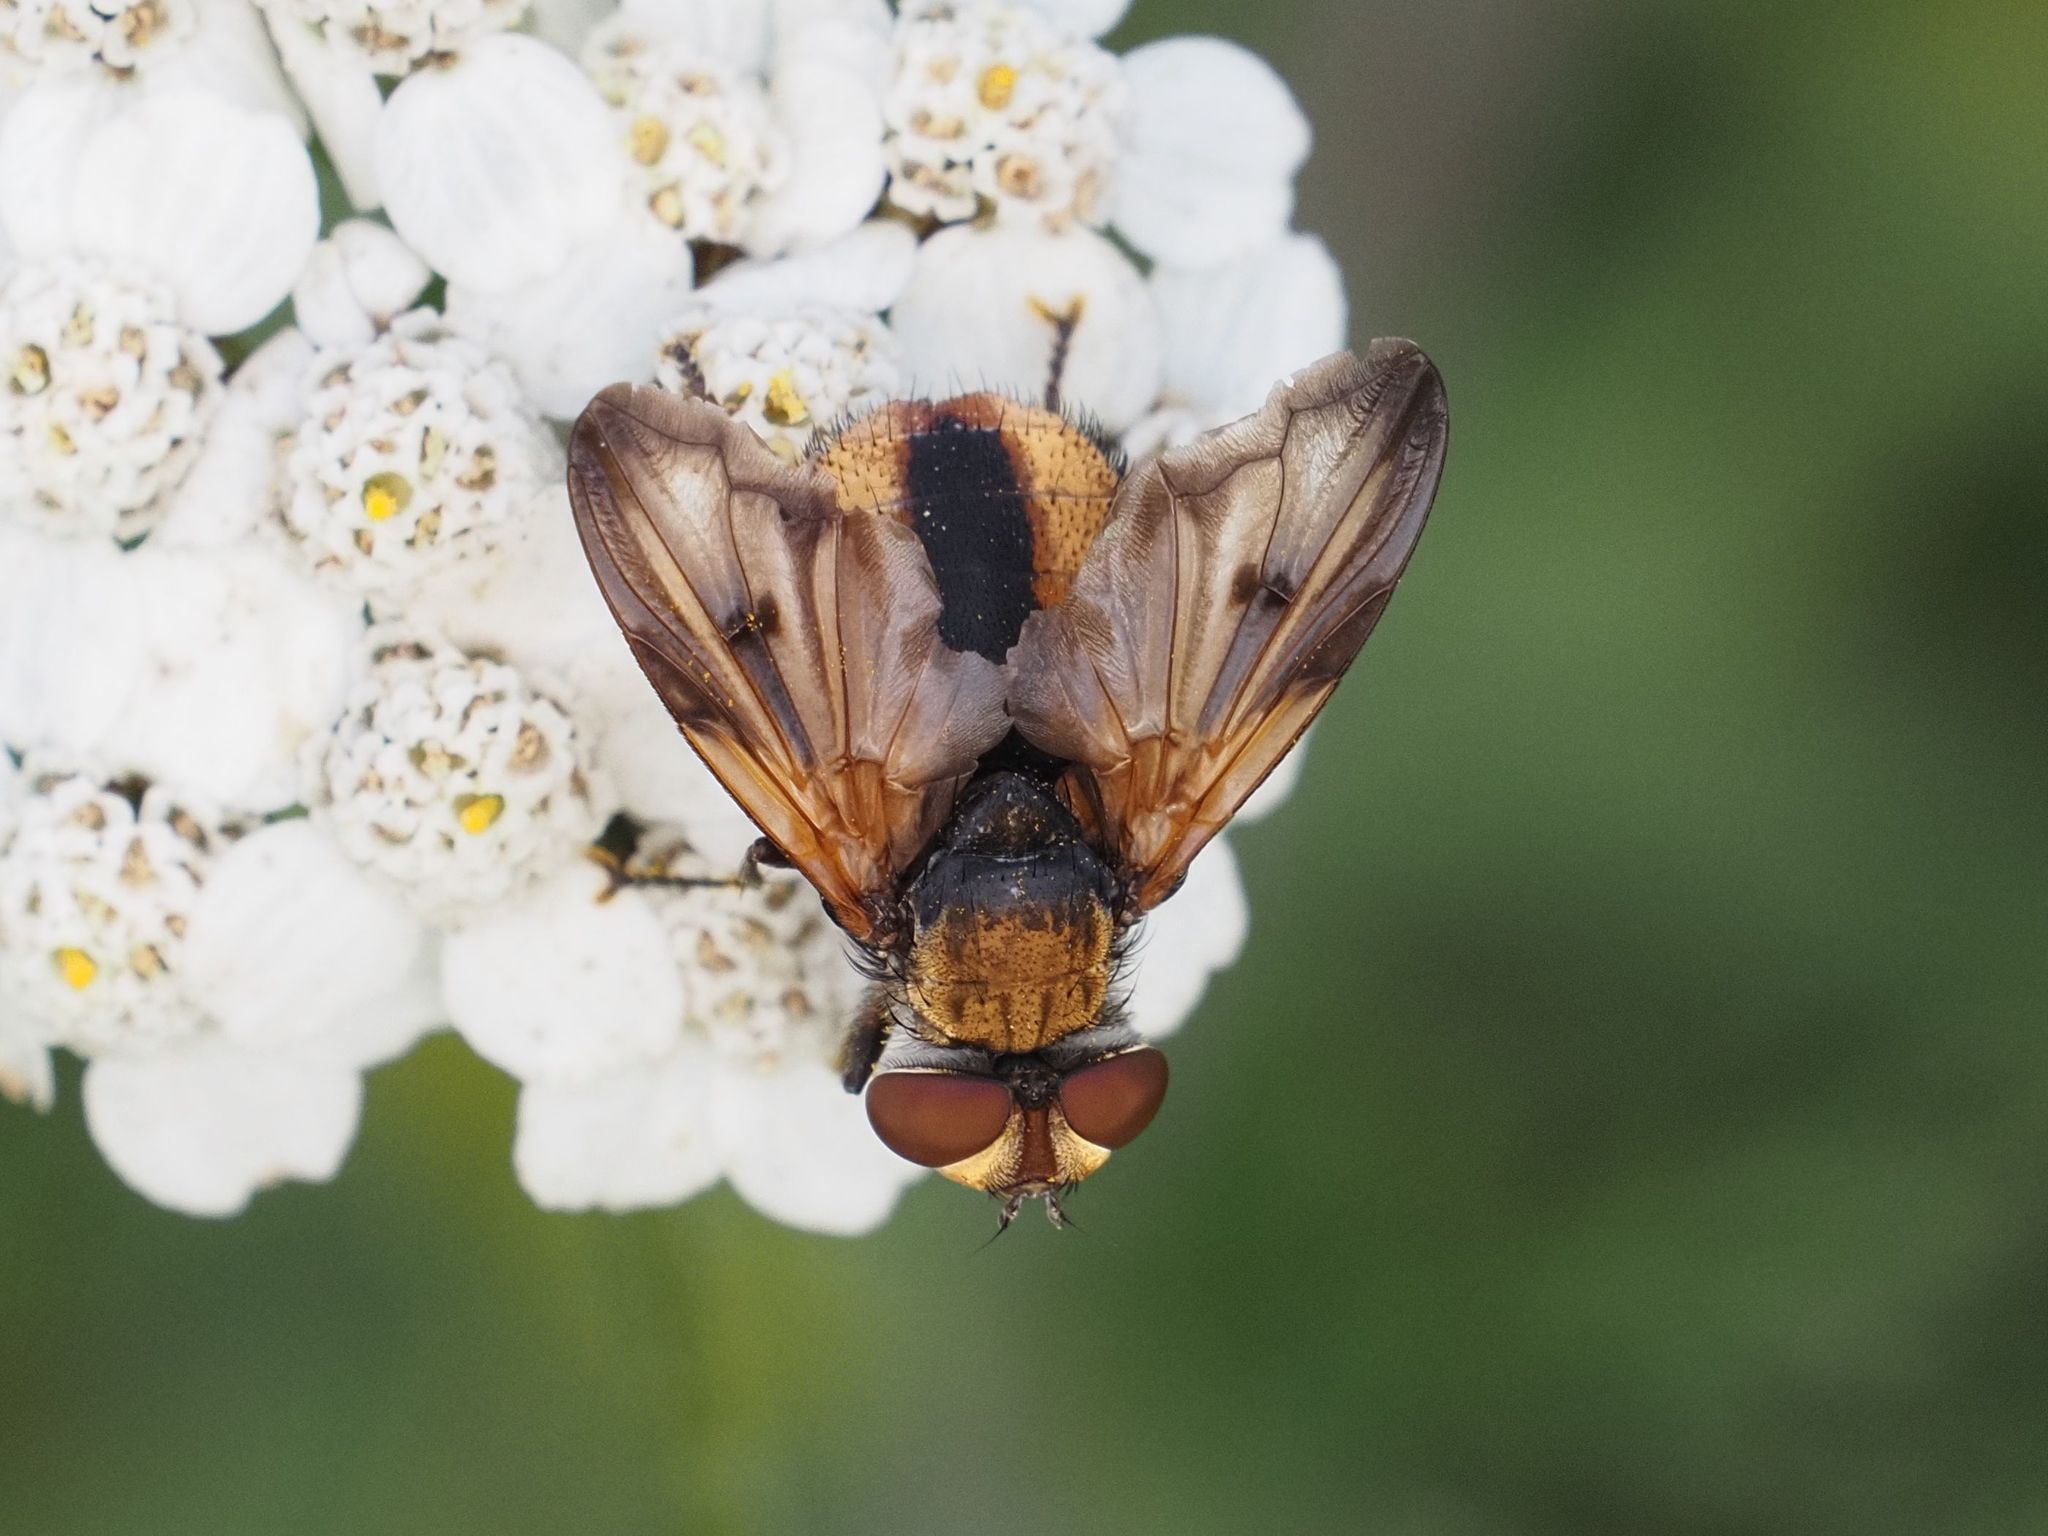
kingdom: Animalia
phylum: Arthropoda
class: Insecta
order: Diptera
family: Tachinidae
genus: Ectophasia
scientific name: Ectophasia crassipennis
